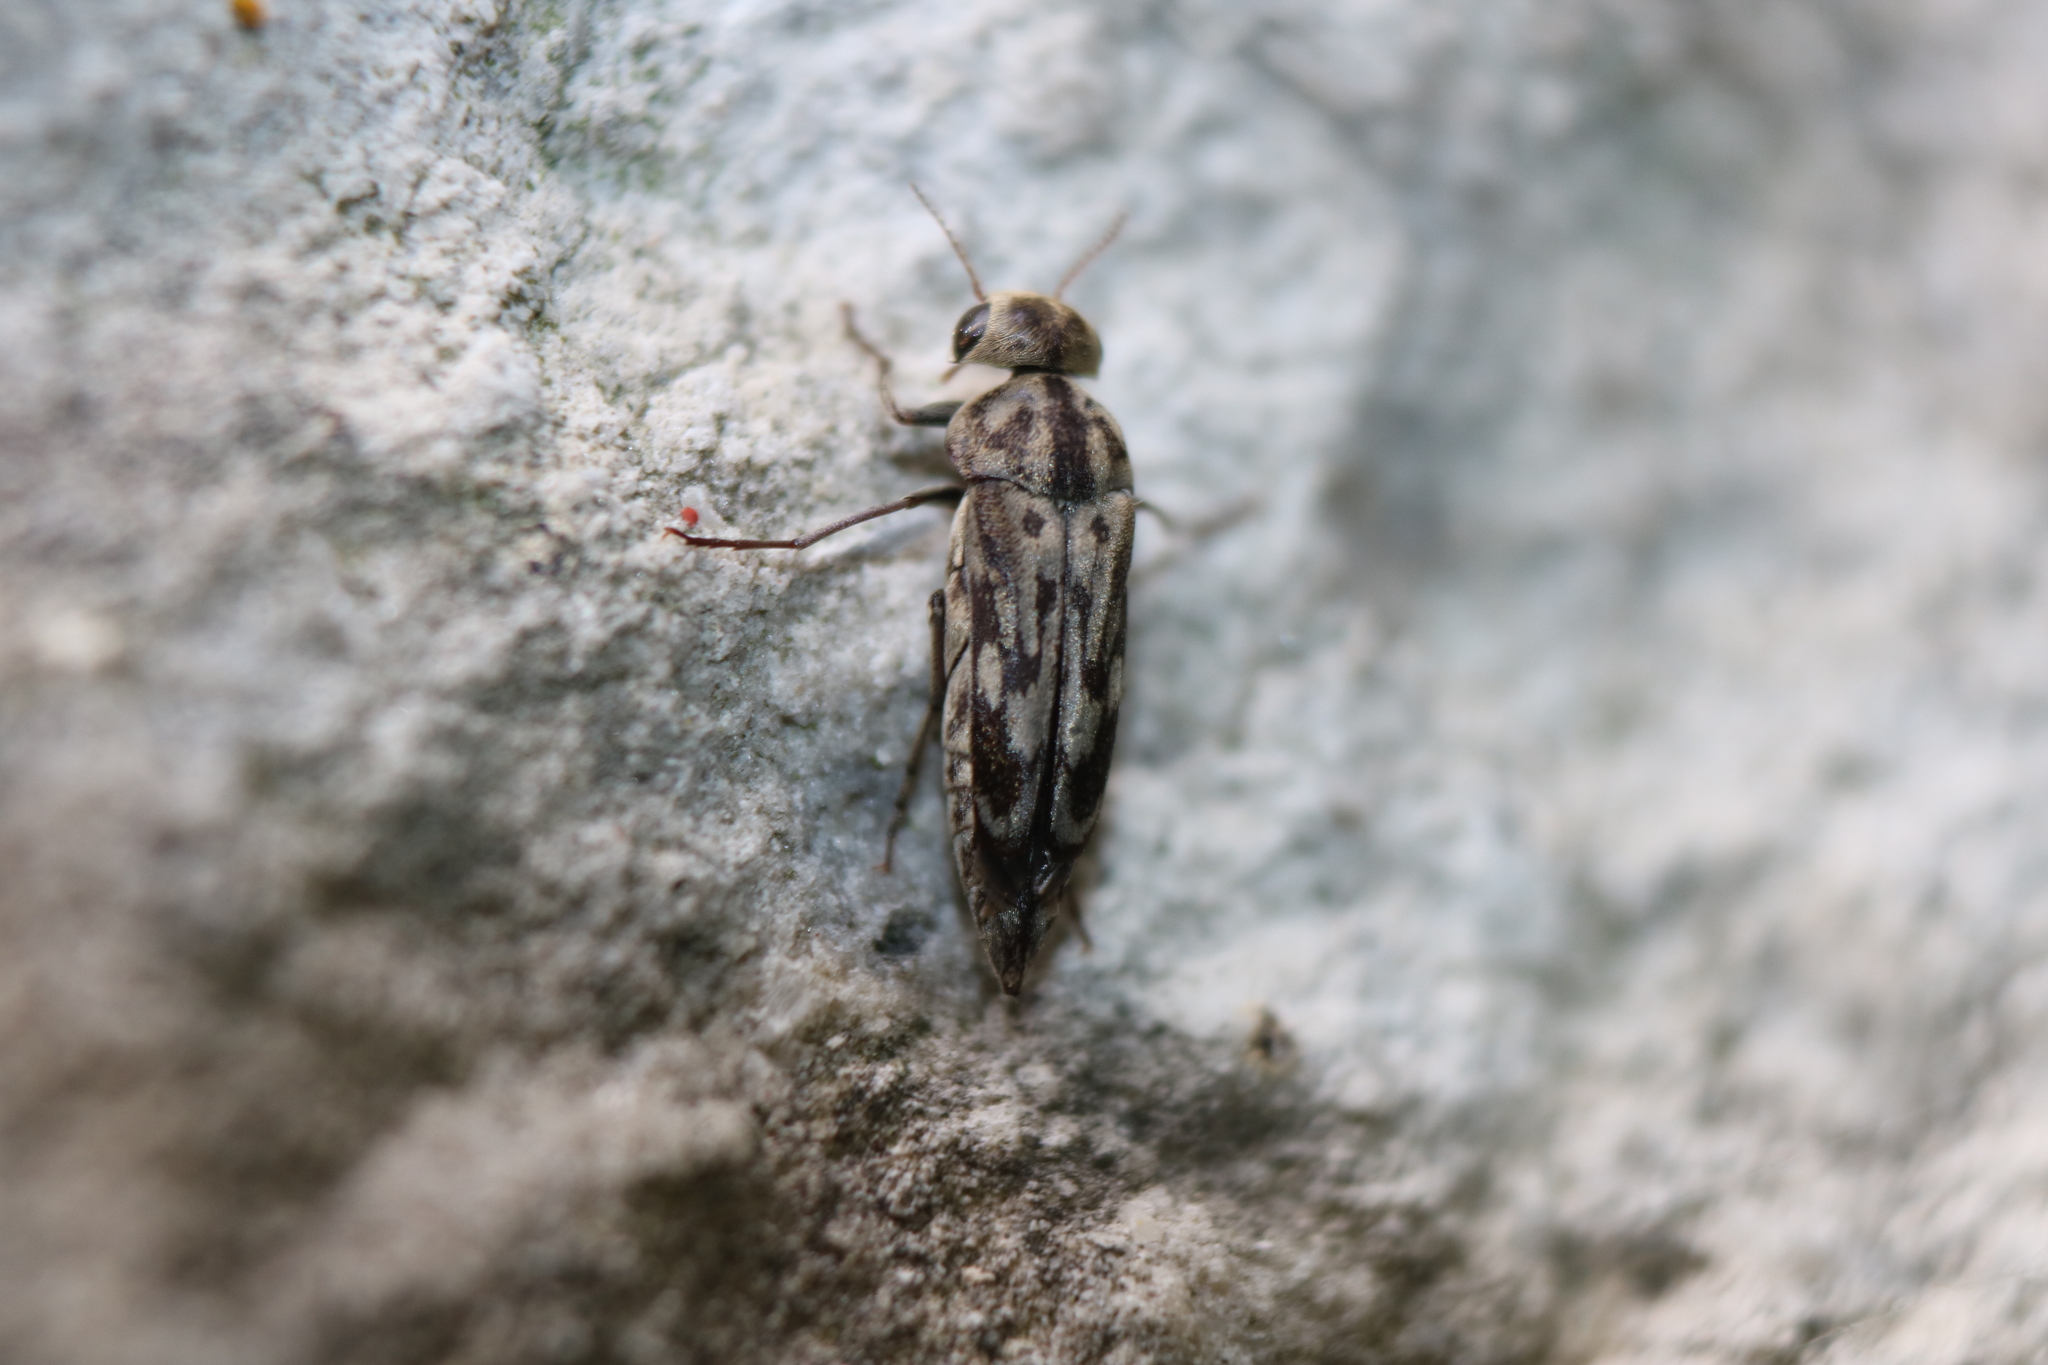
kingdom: Animalia
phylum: Arthropoda
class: Insecta
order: Coleoptera
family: Mordellidae
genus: Yakuhananomia
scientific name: Yakuhananomia bidentata
